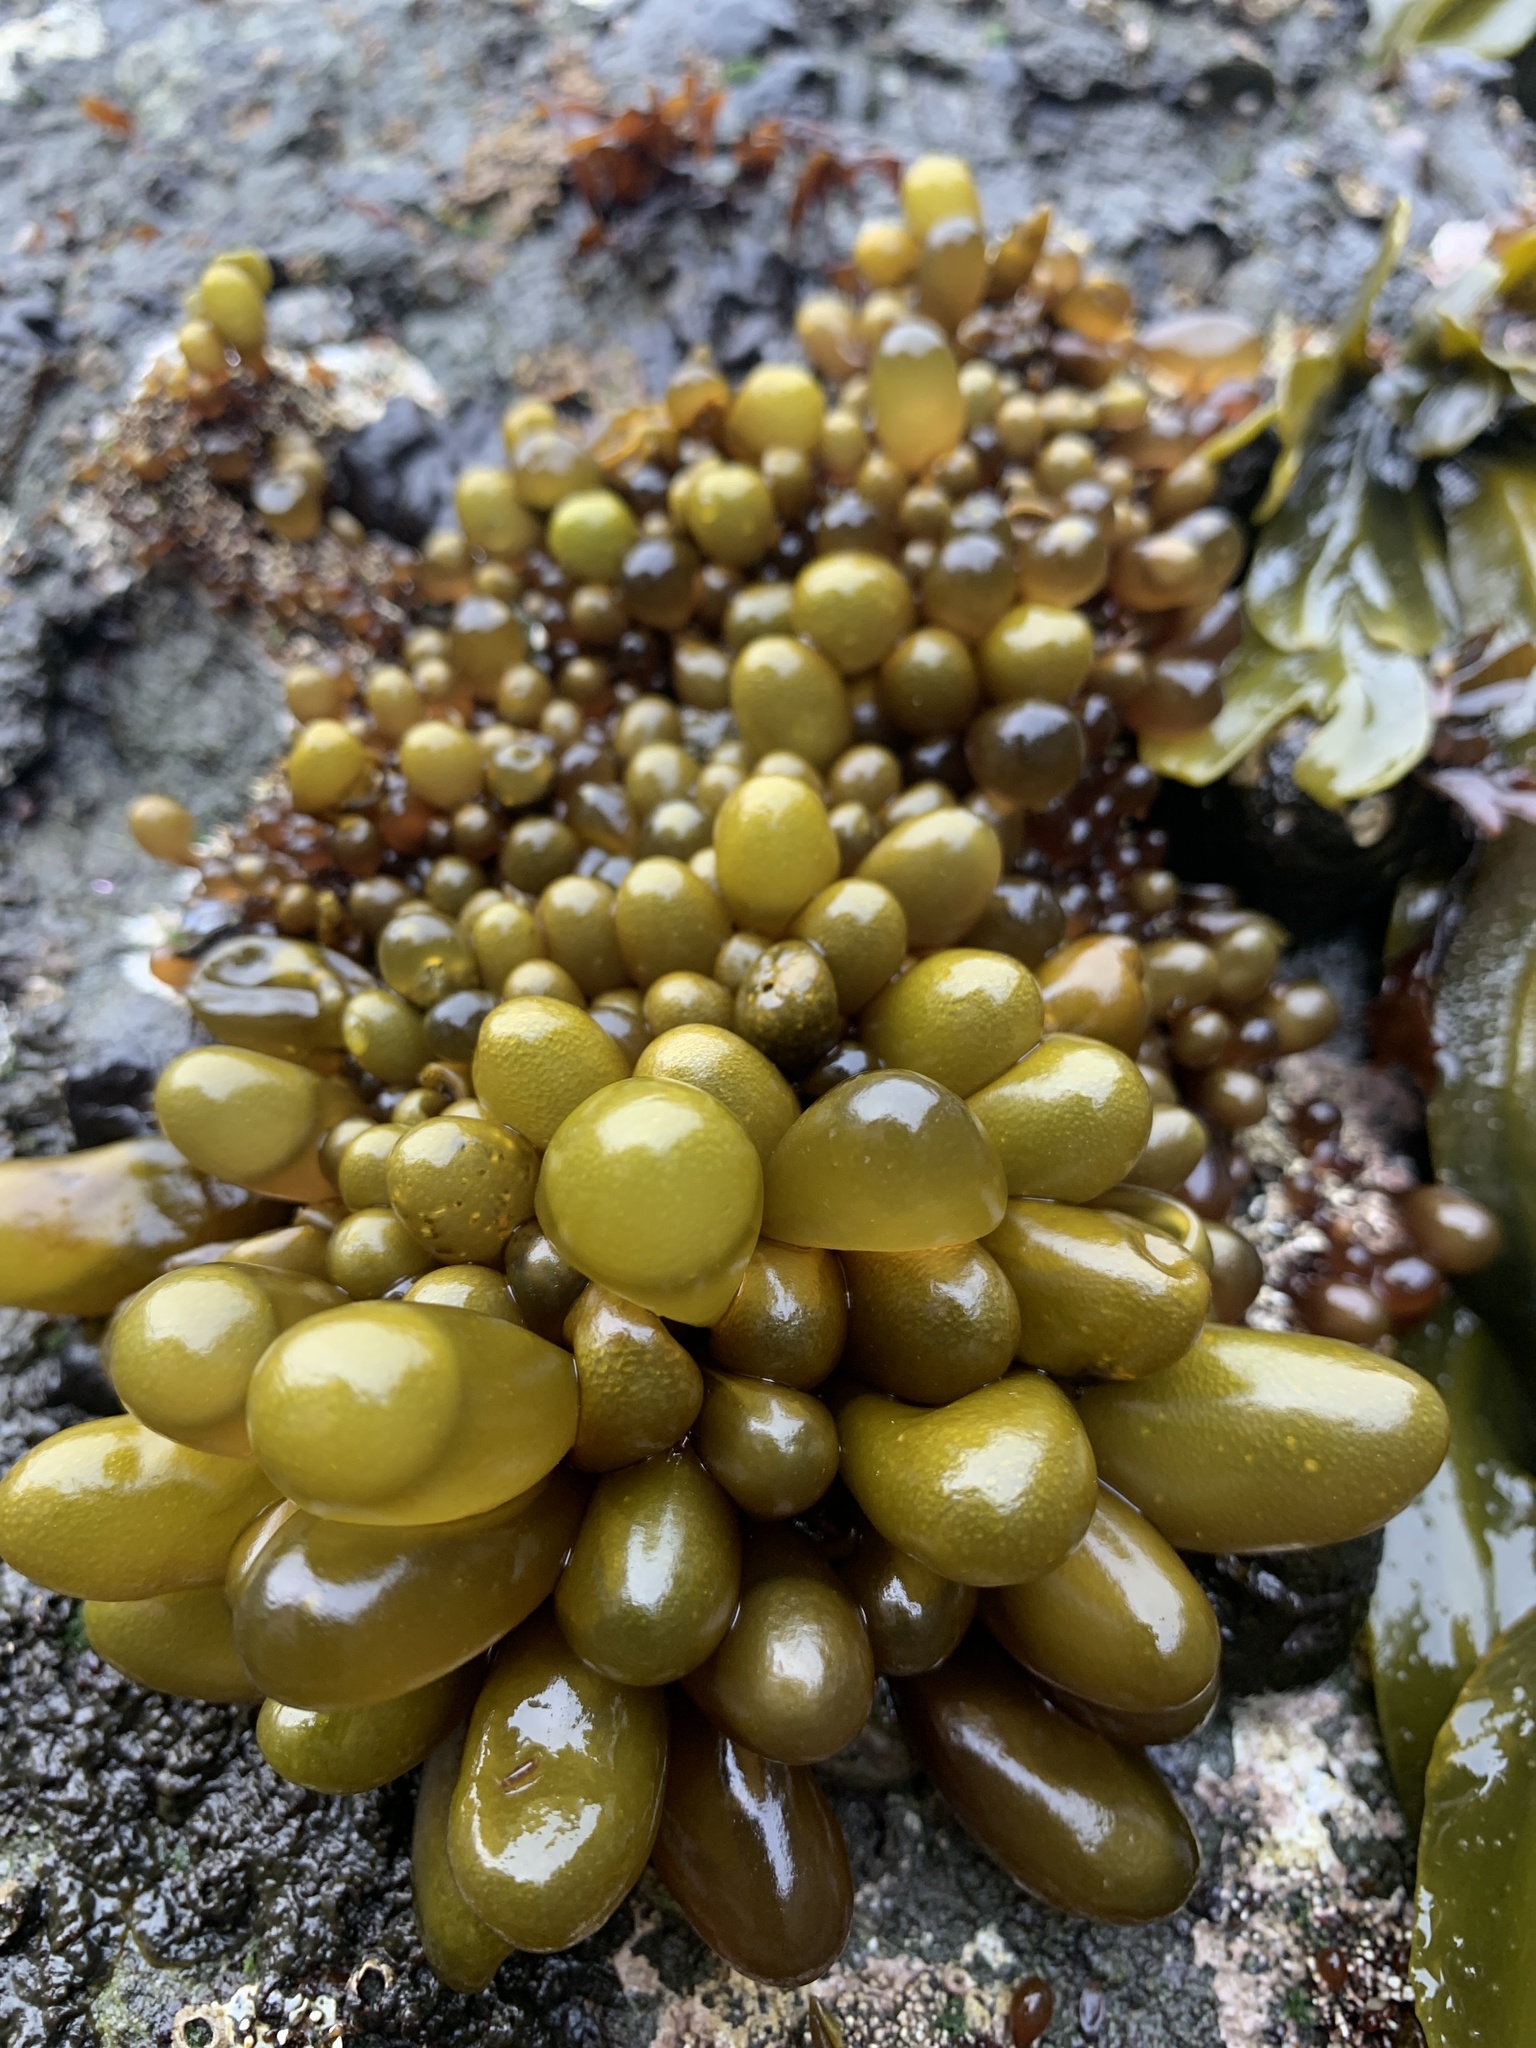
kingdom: Plantae
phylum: Rhodophyta
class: Florideophyceae
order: Palmariales
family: Palmariaceae
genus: Halosaccion
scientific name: Halosaccion glandiforme
